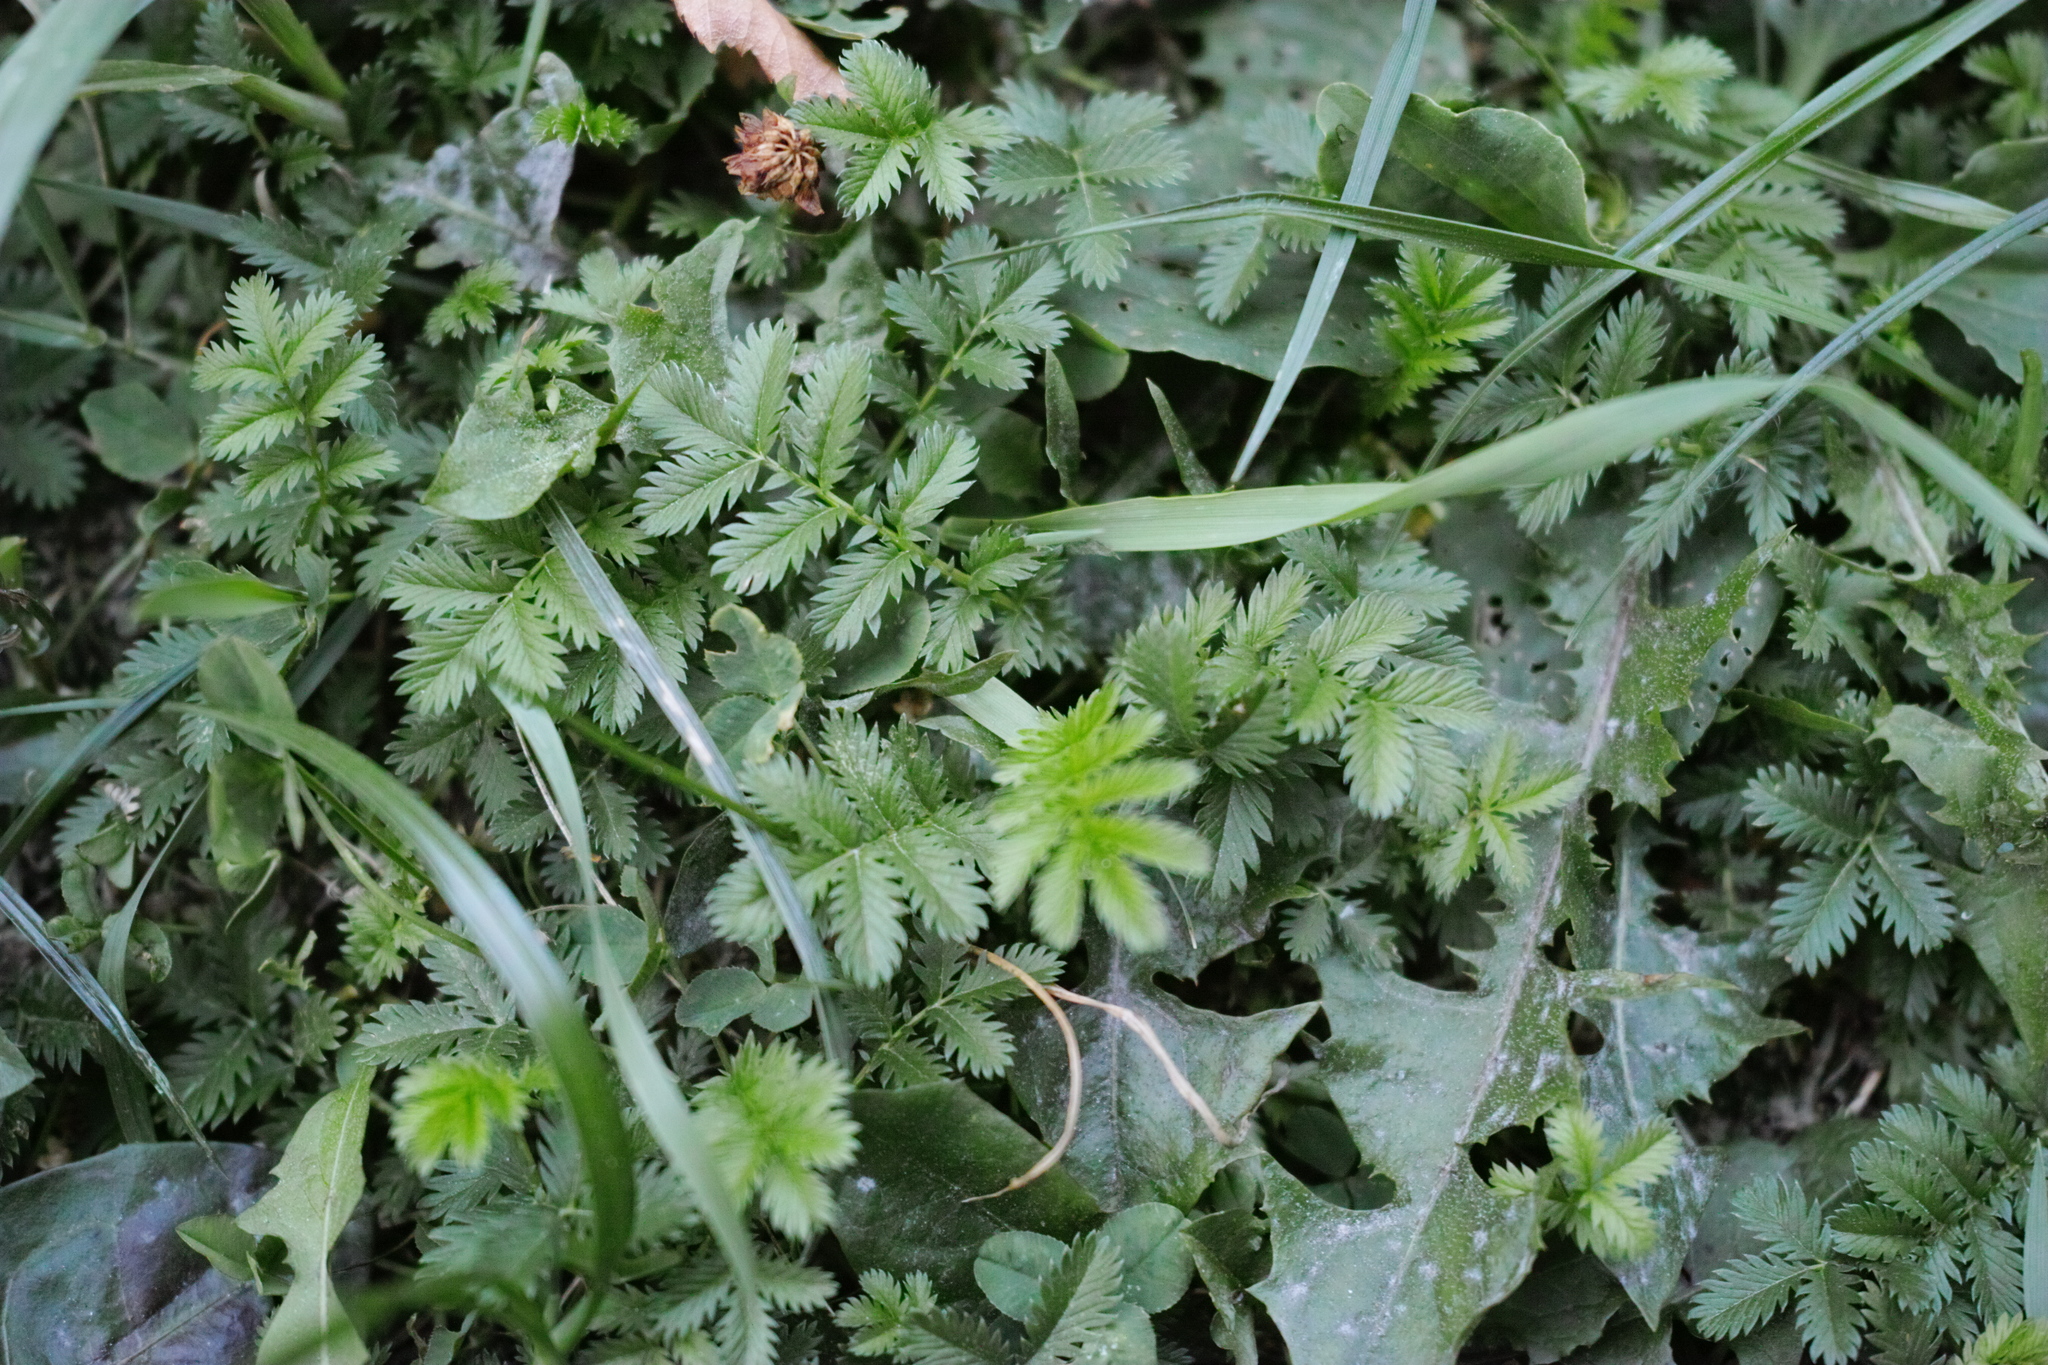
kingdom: Plantae
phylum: Tracheophyta
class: Magnoliopsida
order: Rosales
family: Rosaceae
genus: Argentina
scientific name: Argentina anserina
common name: Common silverweed
